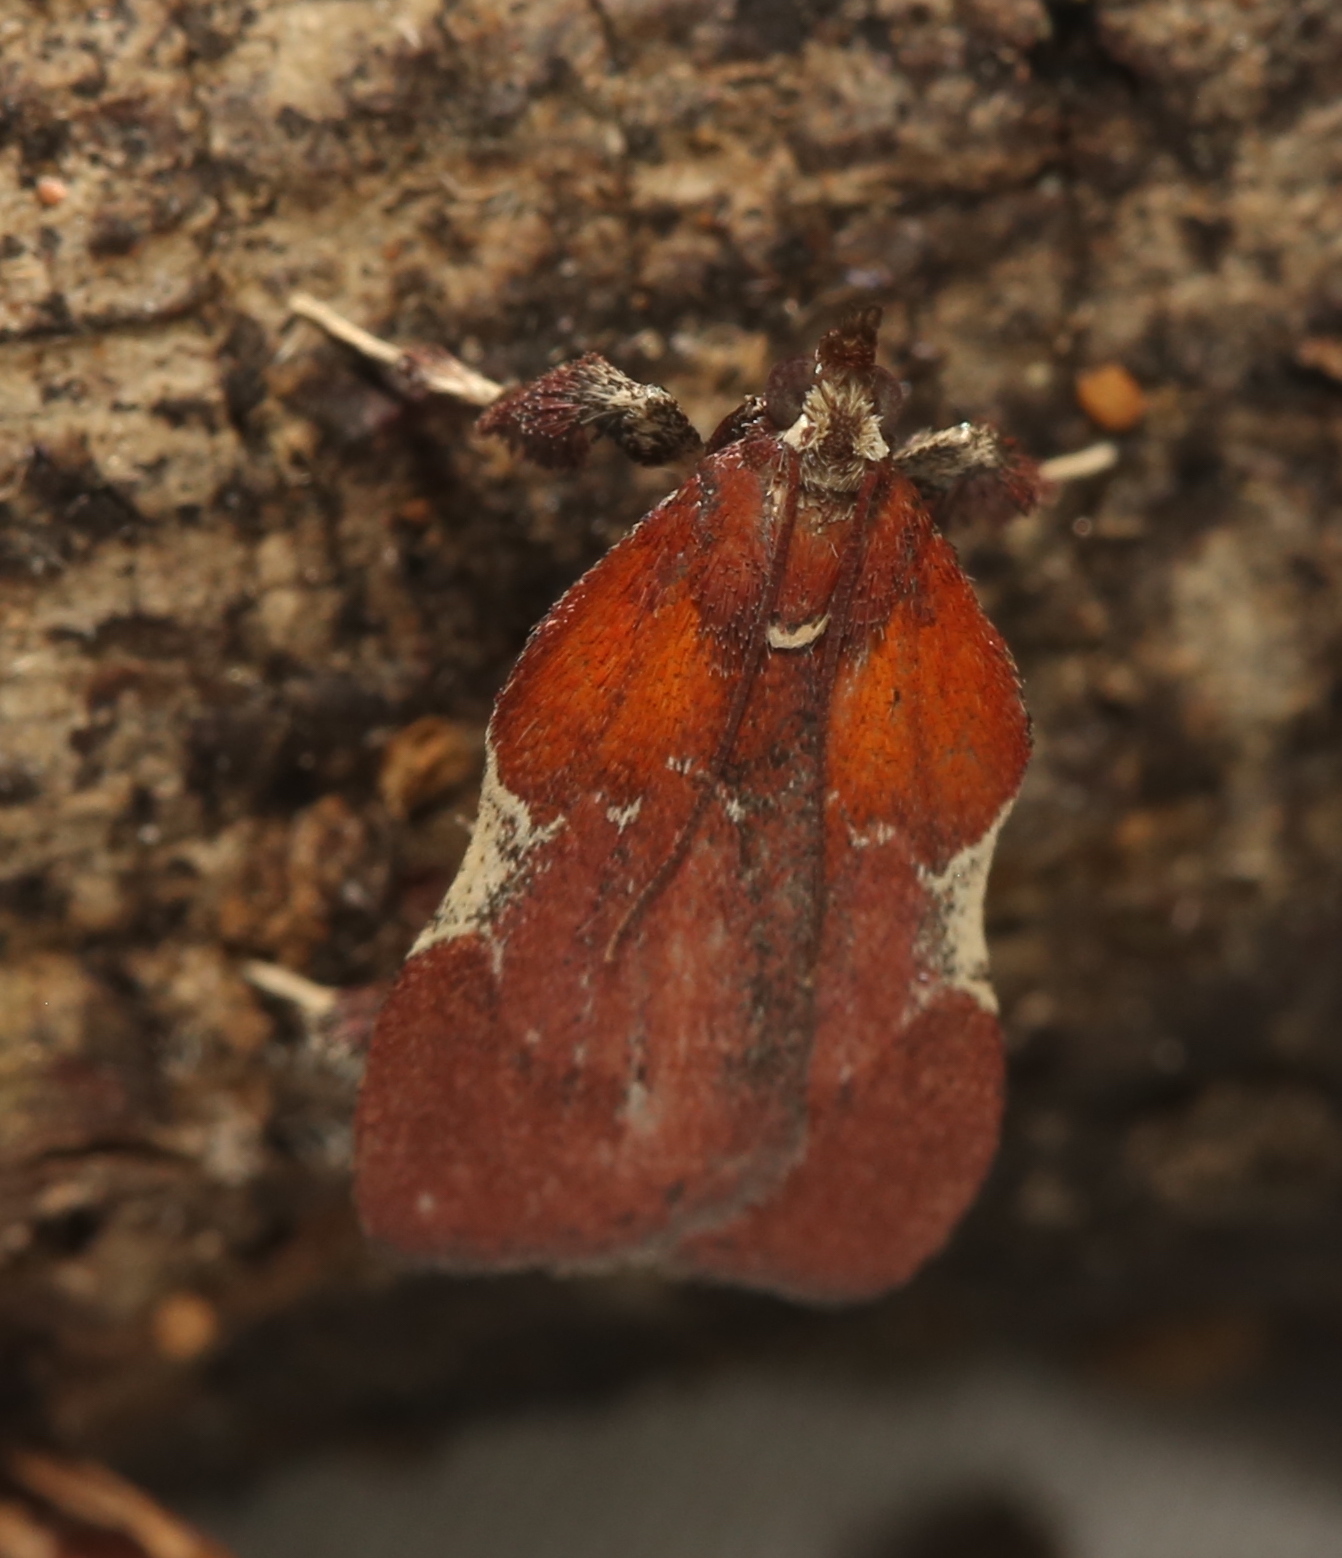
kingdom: Animalia
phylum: Arthropoda
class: Insecta
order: Lepidoptera
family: Pyralidae
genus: Galasa
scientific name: Galasa nigrinodis
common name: Boxwood leaftier moth
